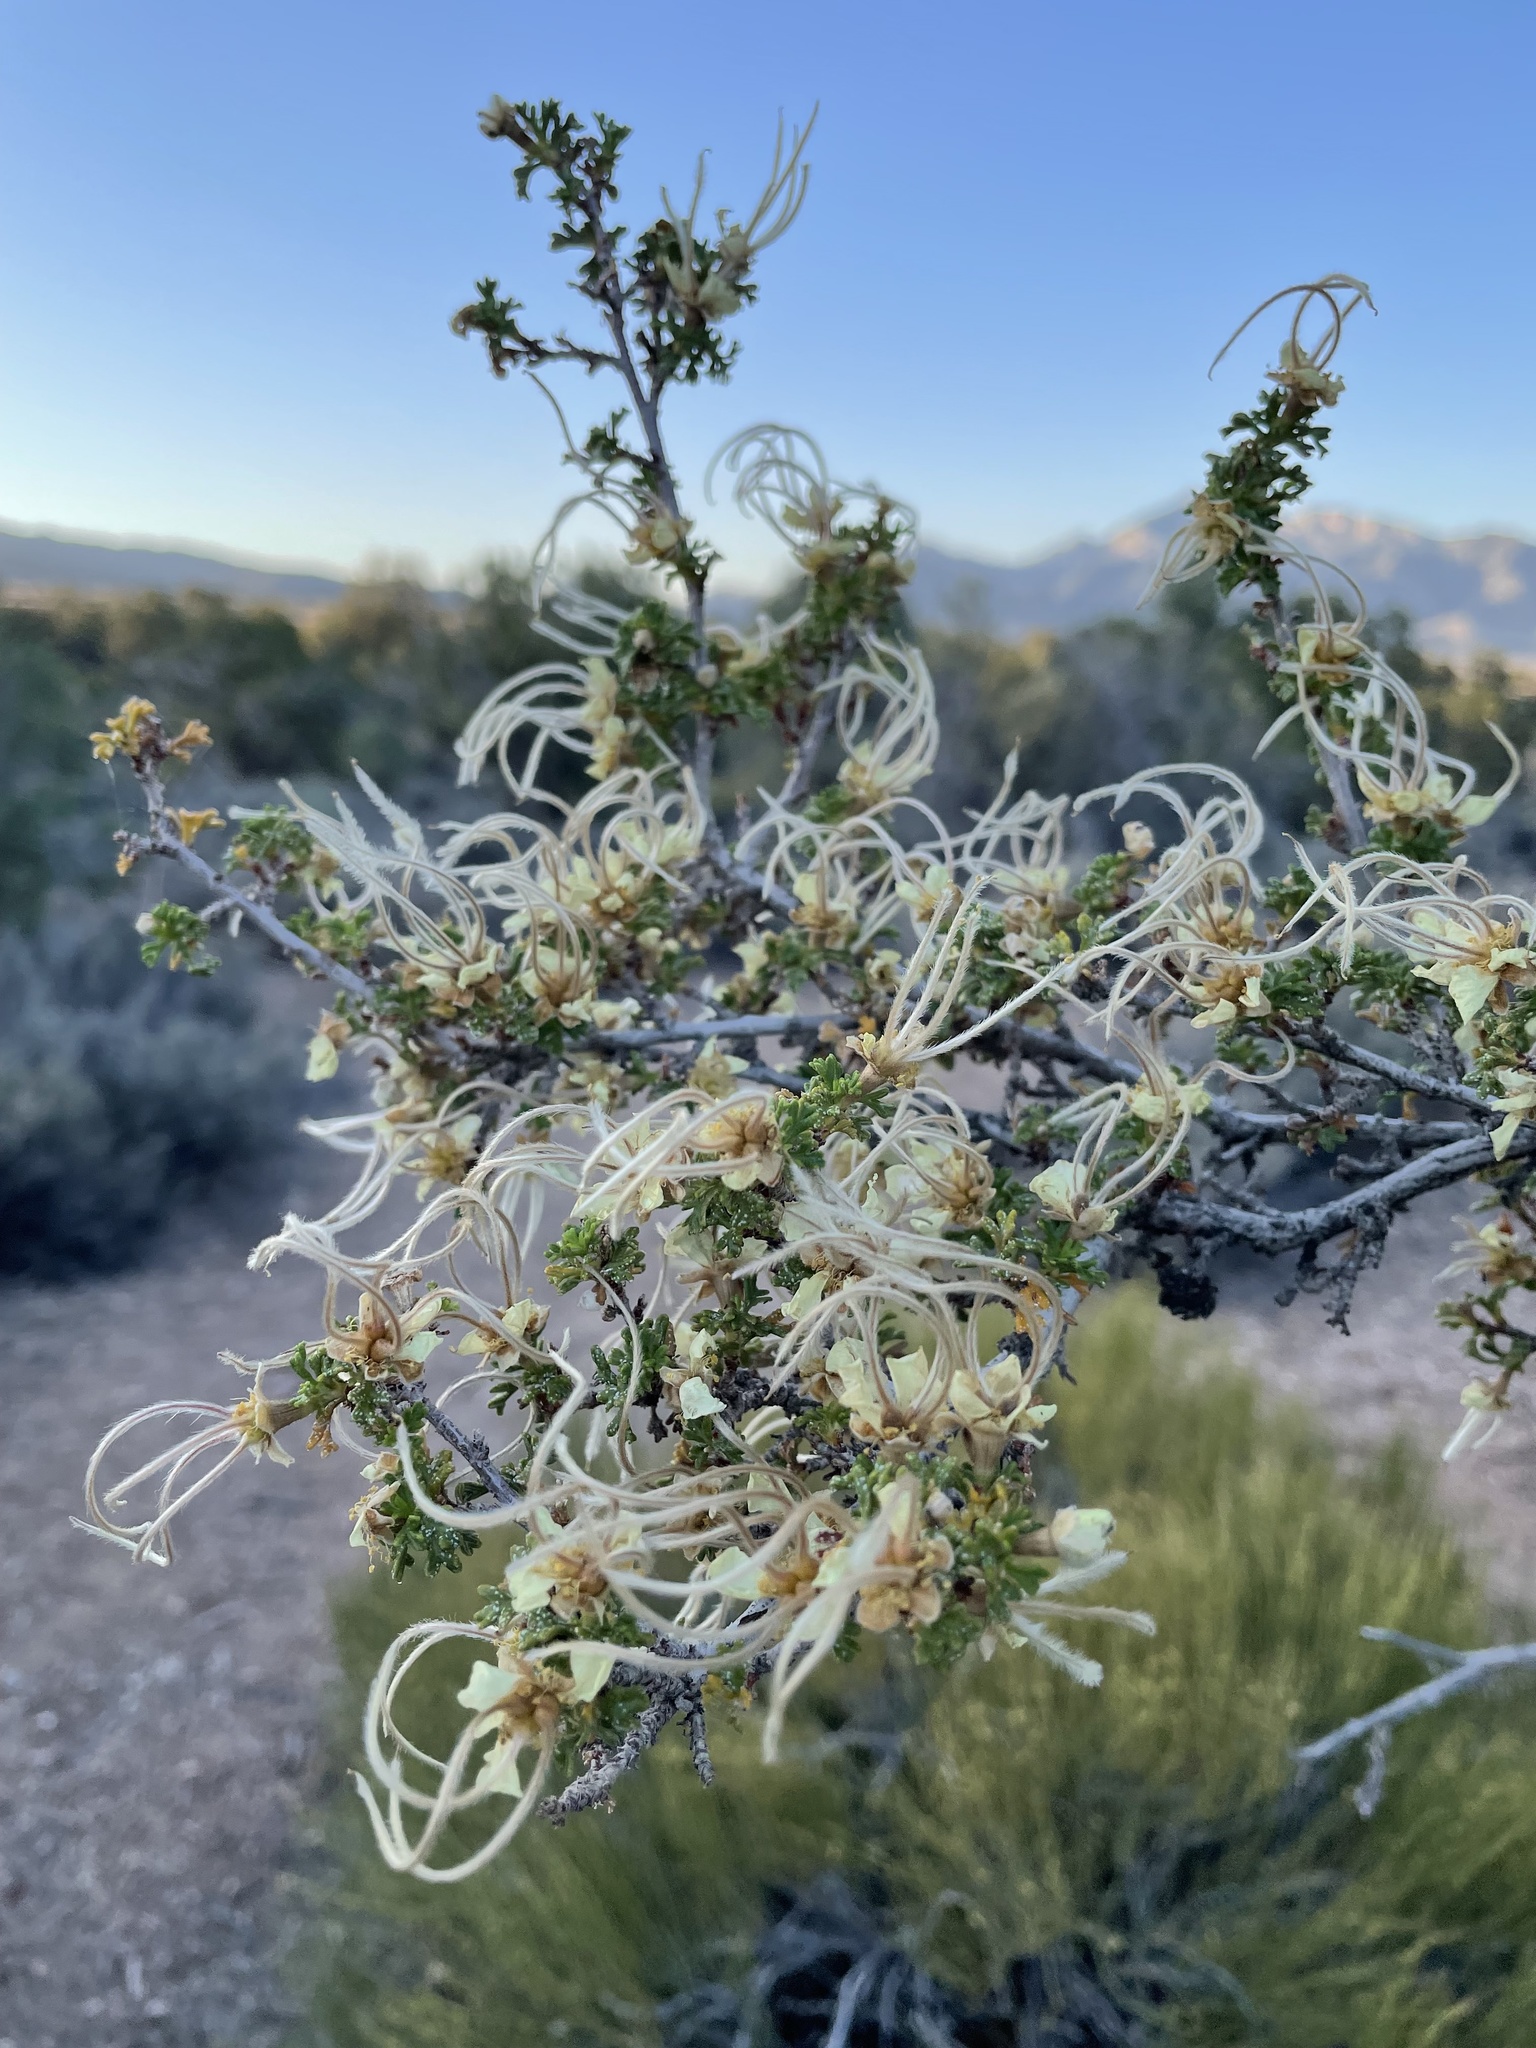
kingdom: Plantae
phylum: Tracheophyta
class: Magnoliopsida
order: Rosales
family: Rosaceae
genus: Purshia
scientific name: Purshia stansburiana
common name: Stansbury's cliffrose
